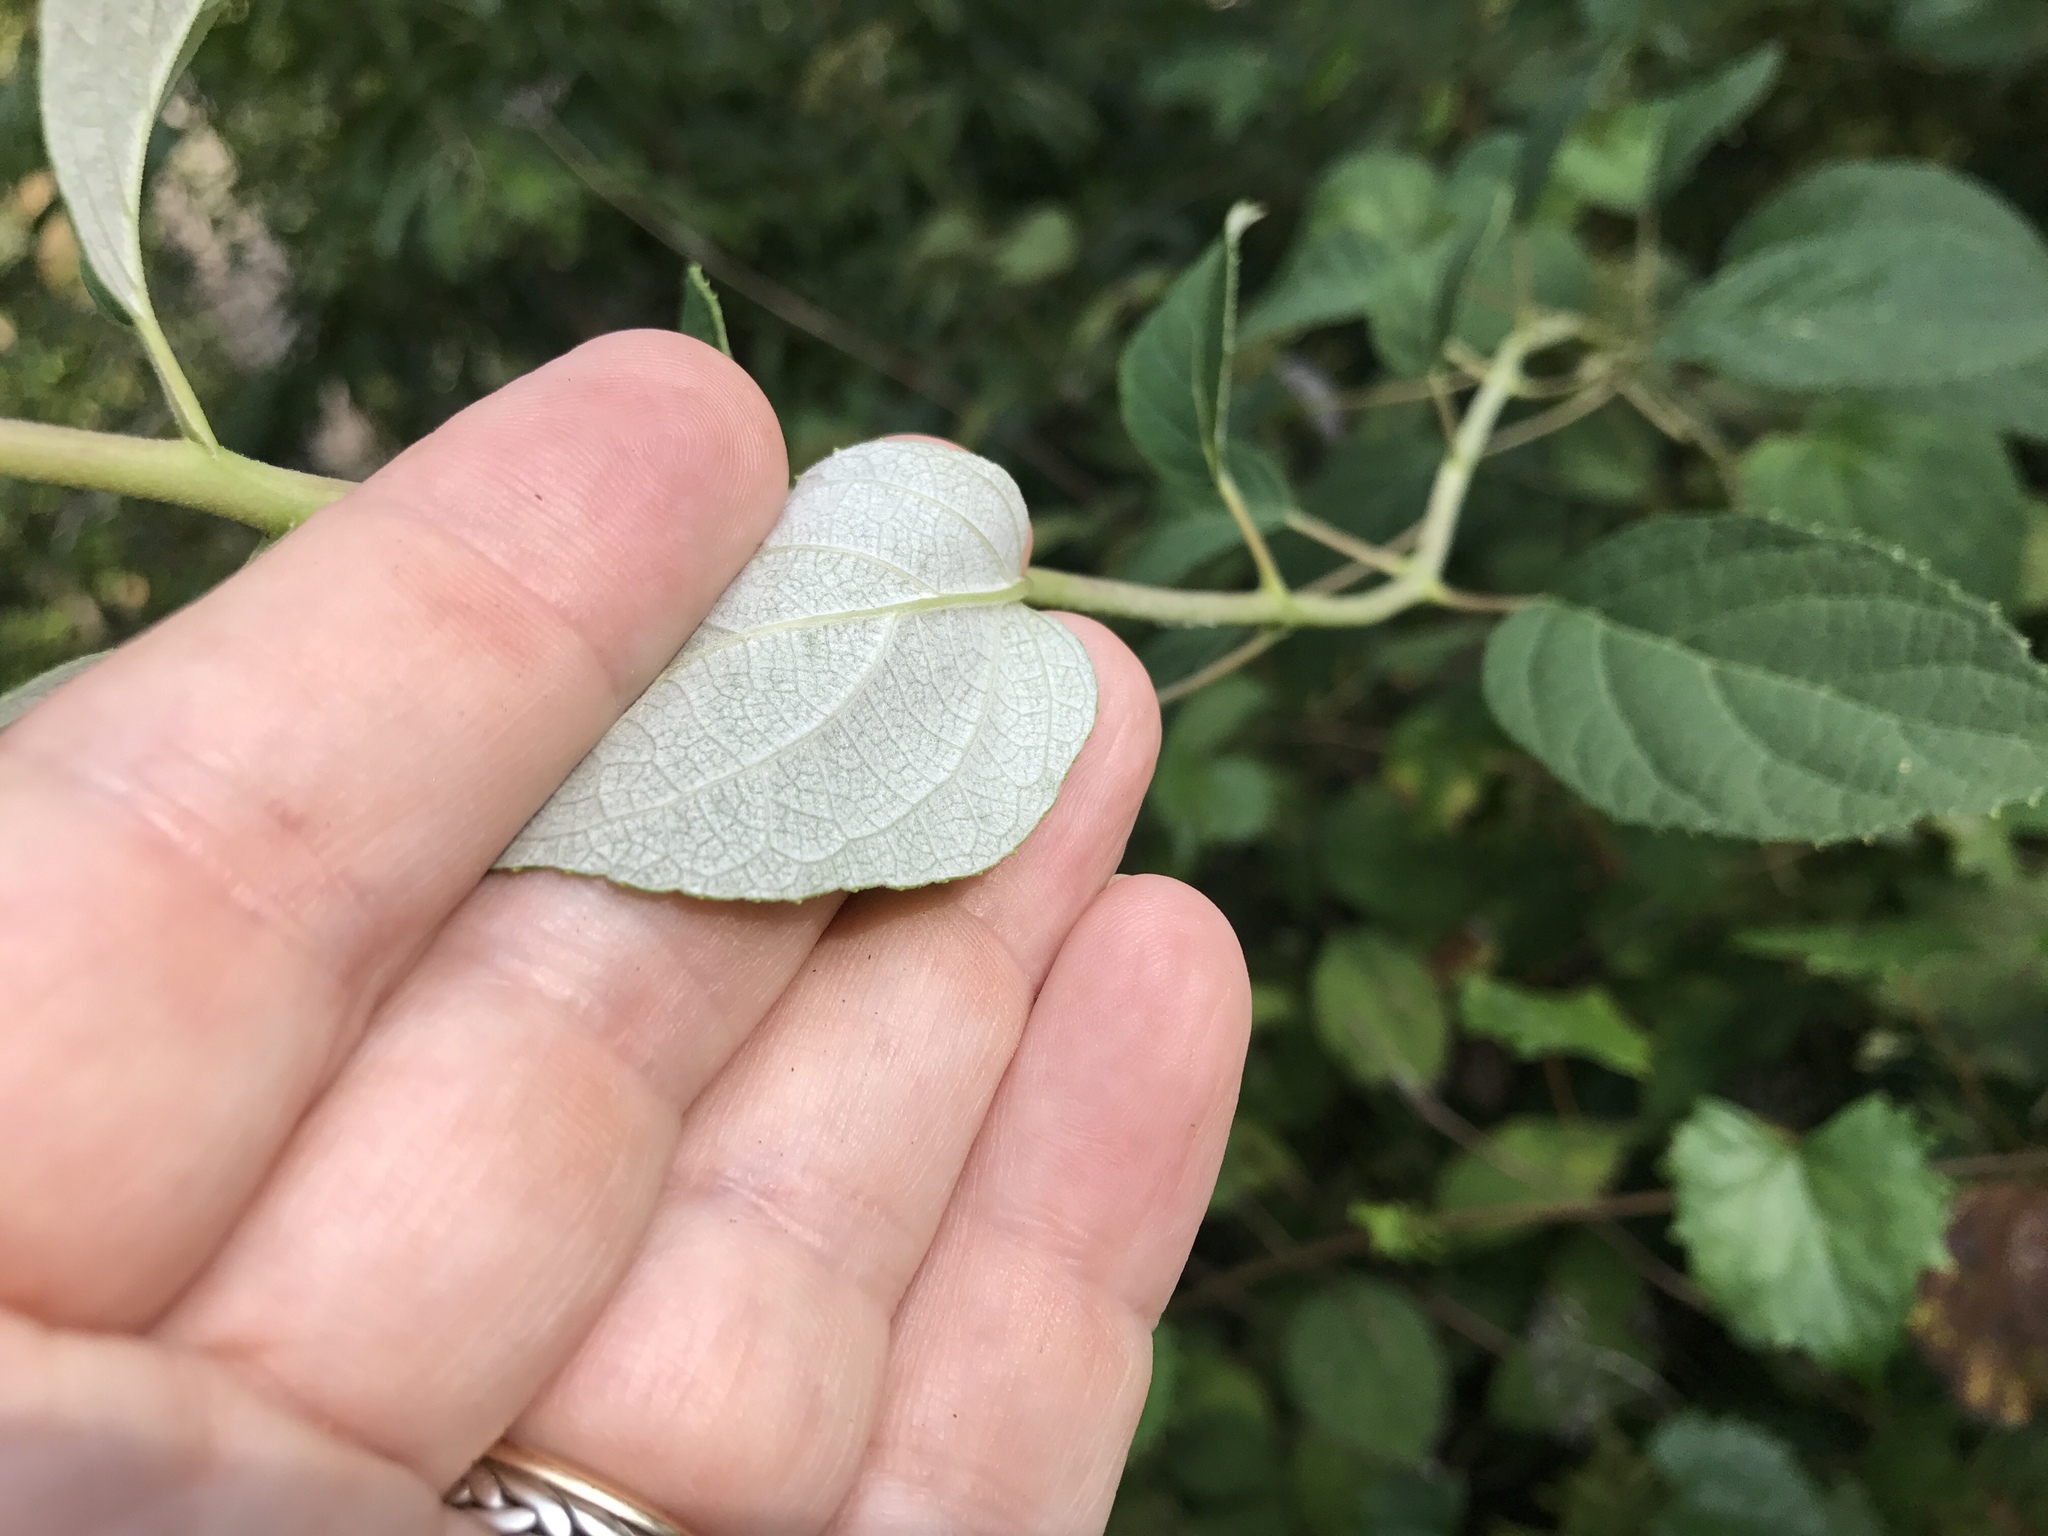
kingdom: Plantae
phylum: Tracheophyta
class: Magnoliopsida
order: Cornales
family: Hydrangeaceae
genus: Hydrangea
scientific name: Hydrangea radiata
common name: Silverleaf hydrangea
